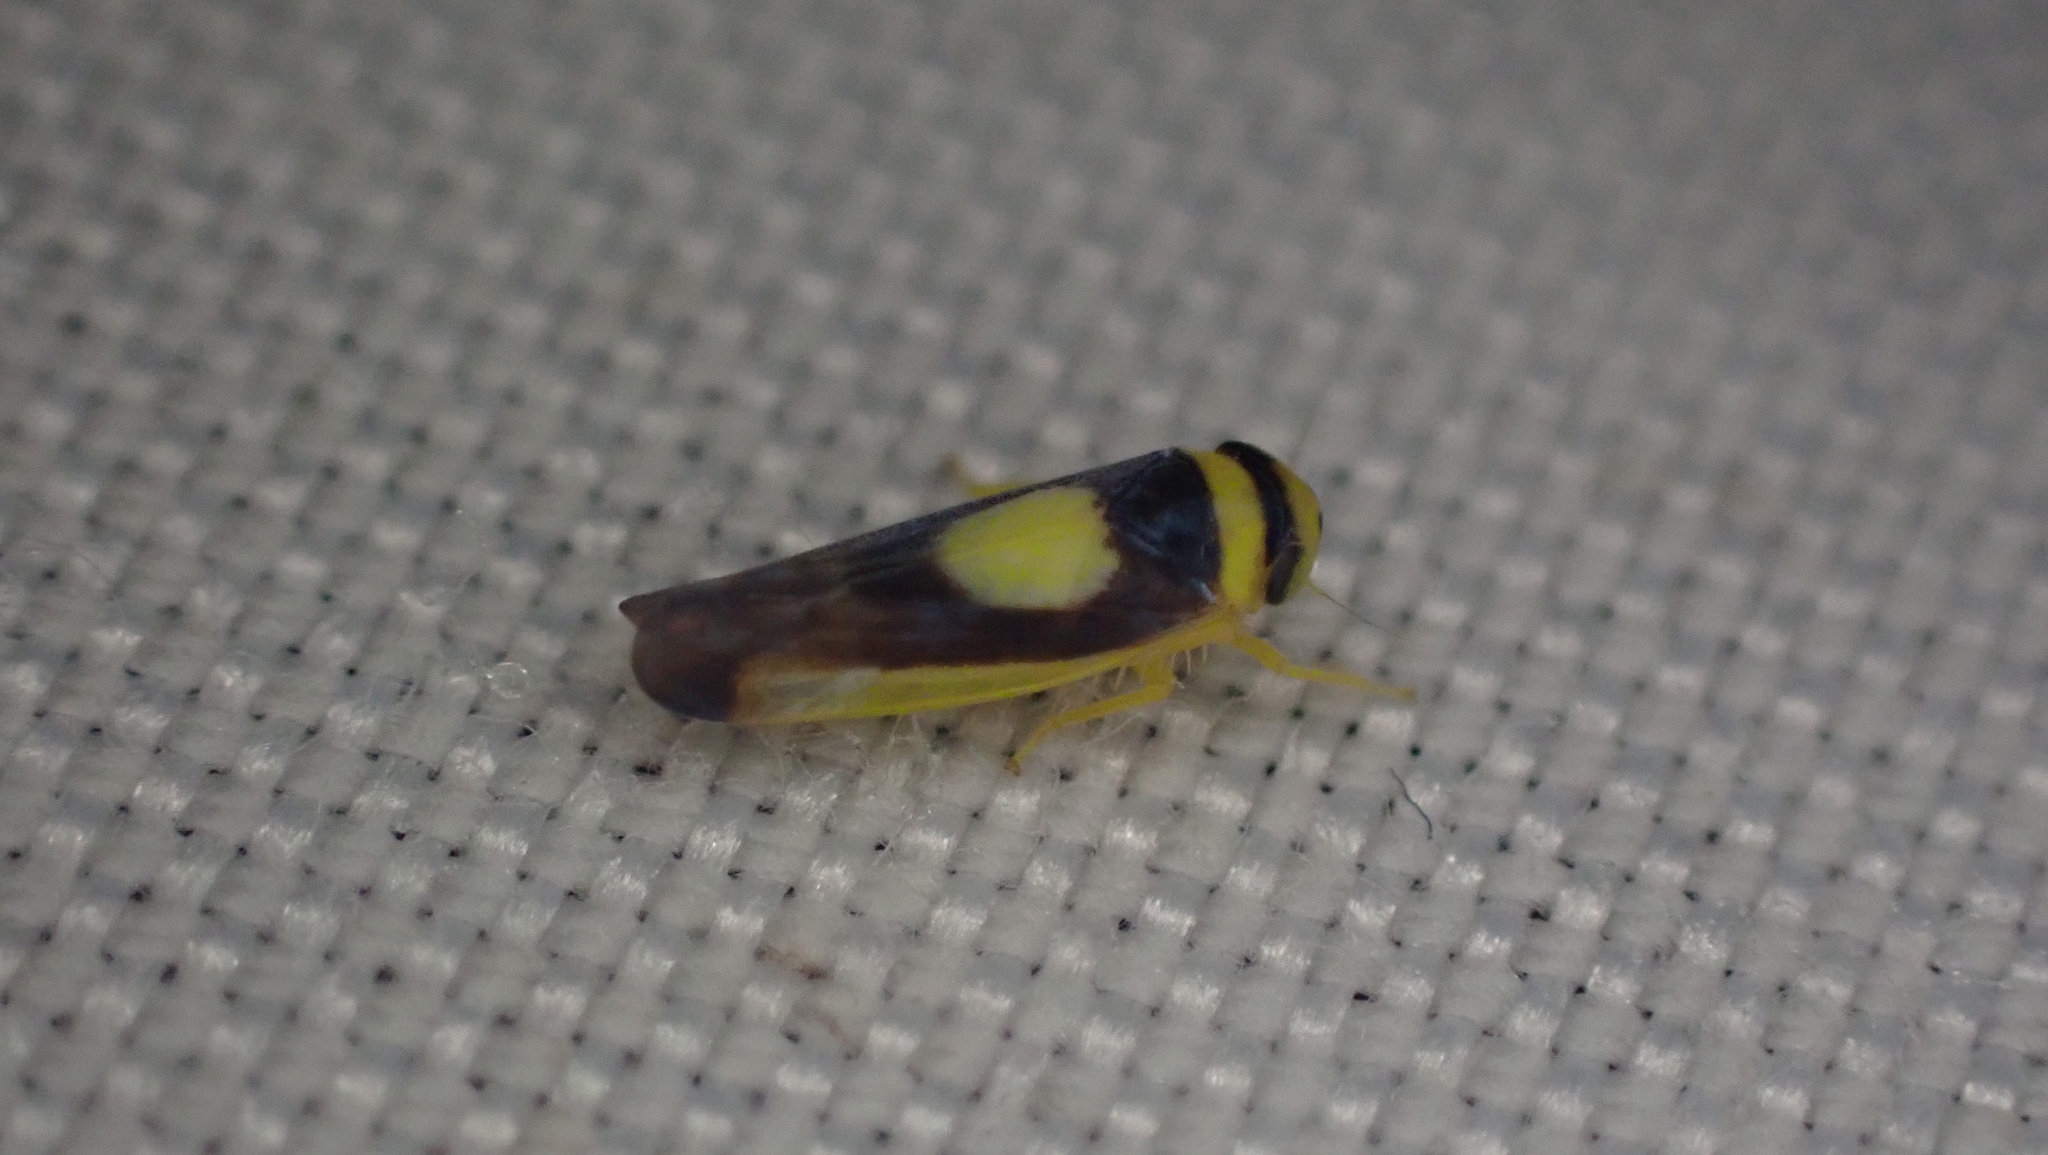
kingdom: Animalia
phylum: Arthropoda
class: Insecta
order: Hemiptera
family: Cicadellidae
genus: Colladonus
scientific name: Colladonus clitellarius
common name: The saddleback leafhopper
